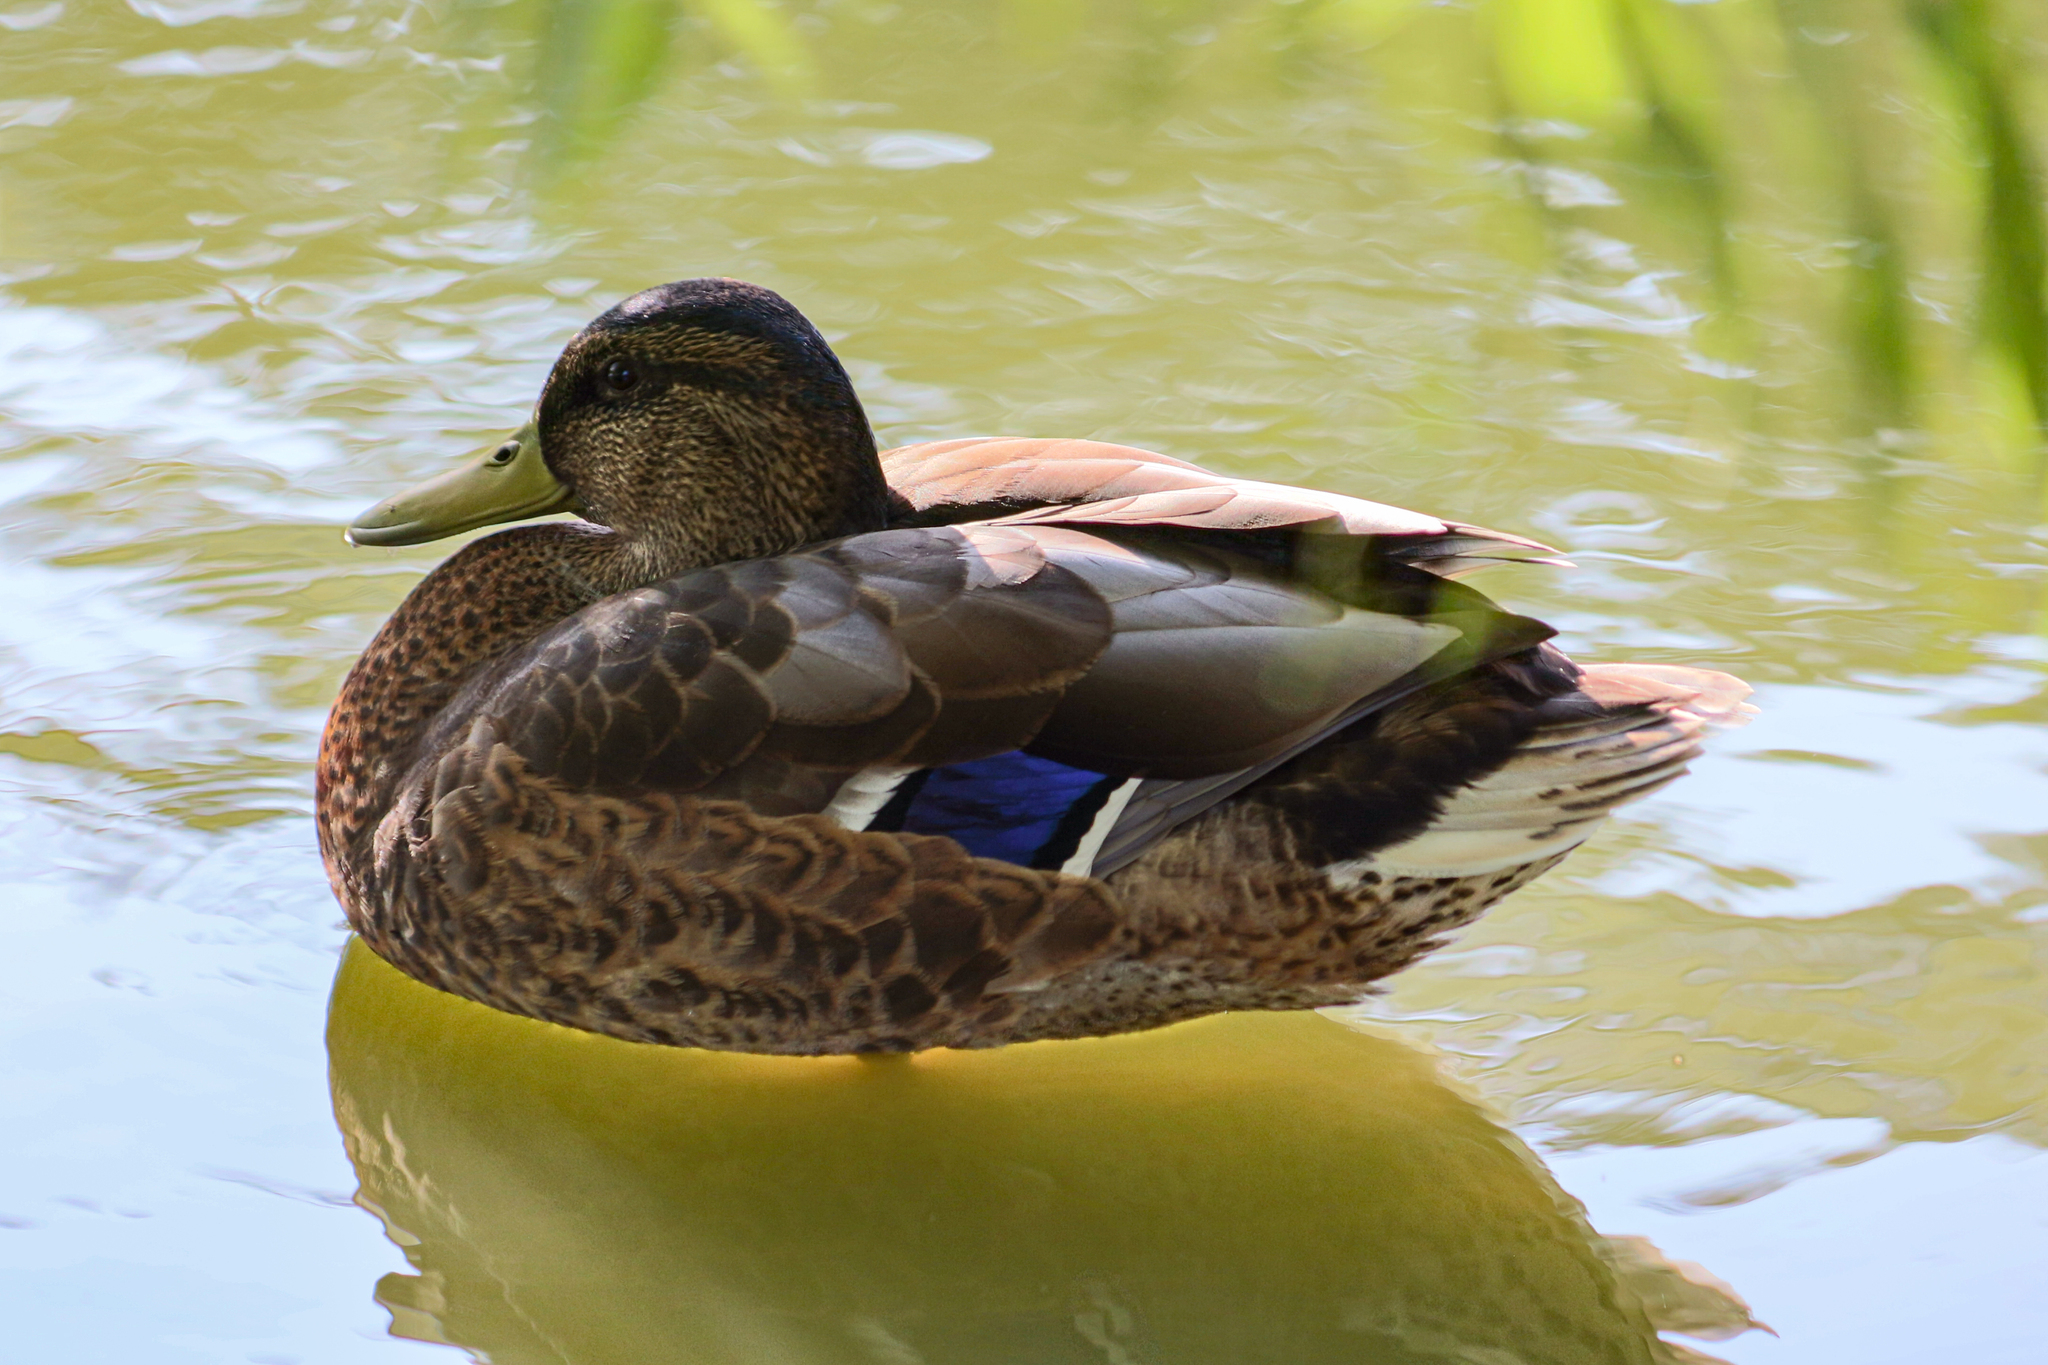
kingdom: Animalia
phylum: Chordata
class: Aves
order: Anseriformes
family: Anatidae
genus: Anas
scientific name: Anas platyrhynchos
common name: Mallard
